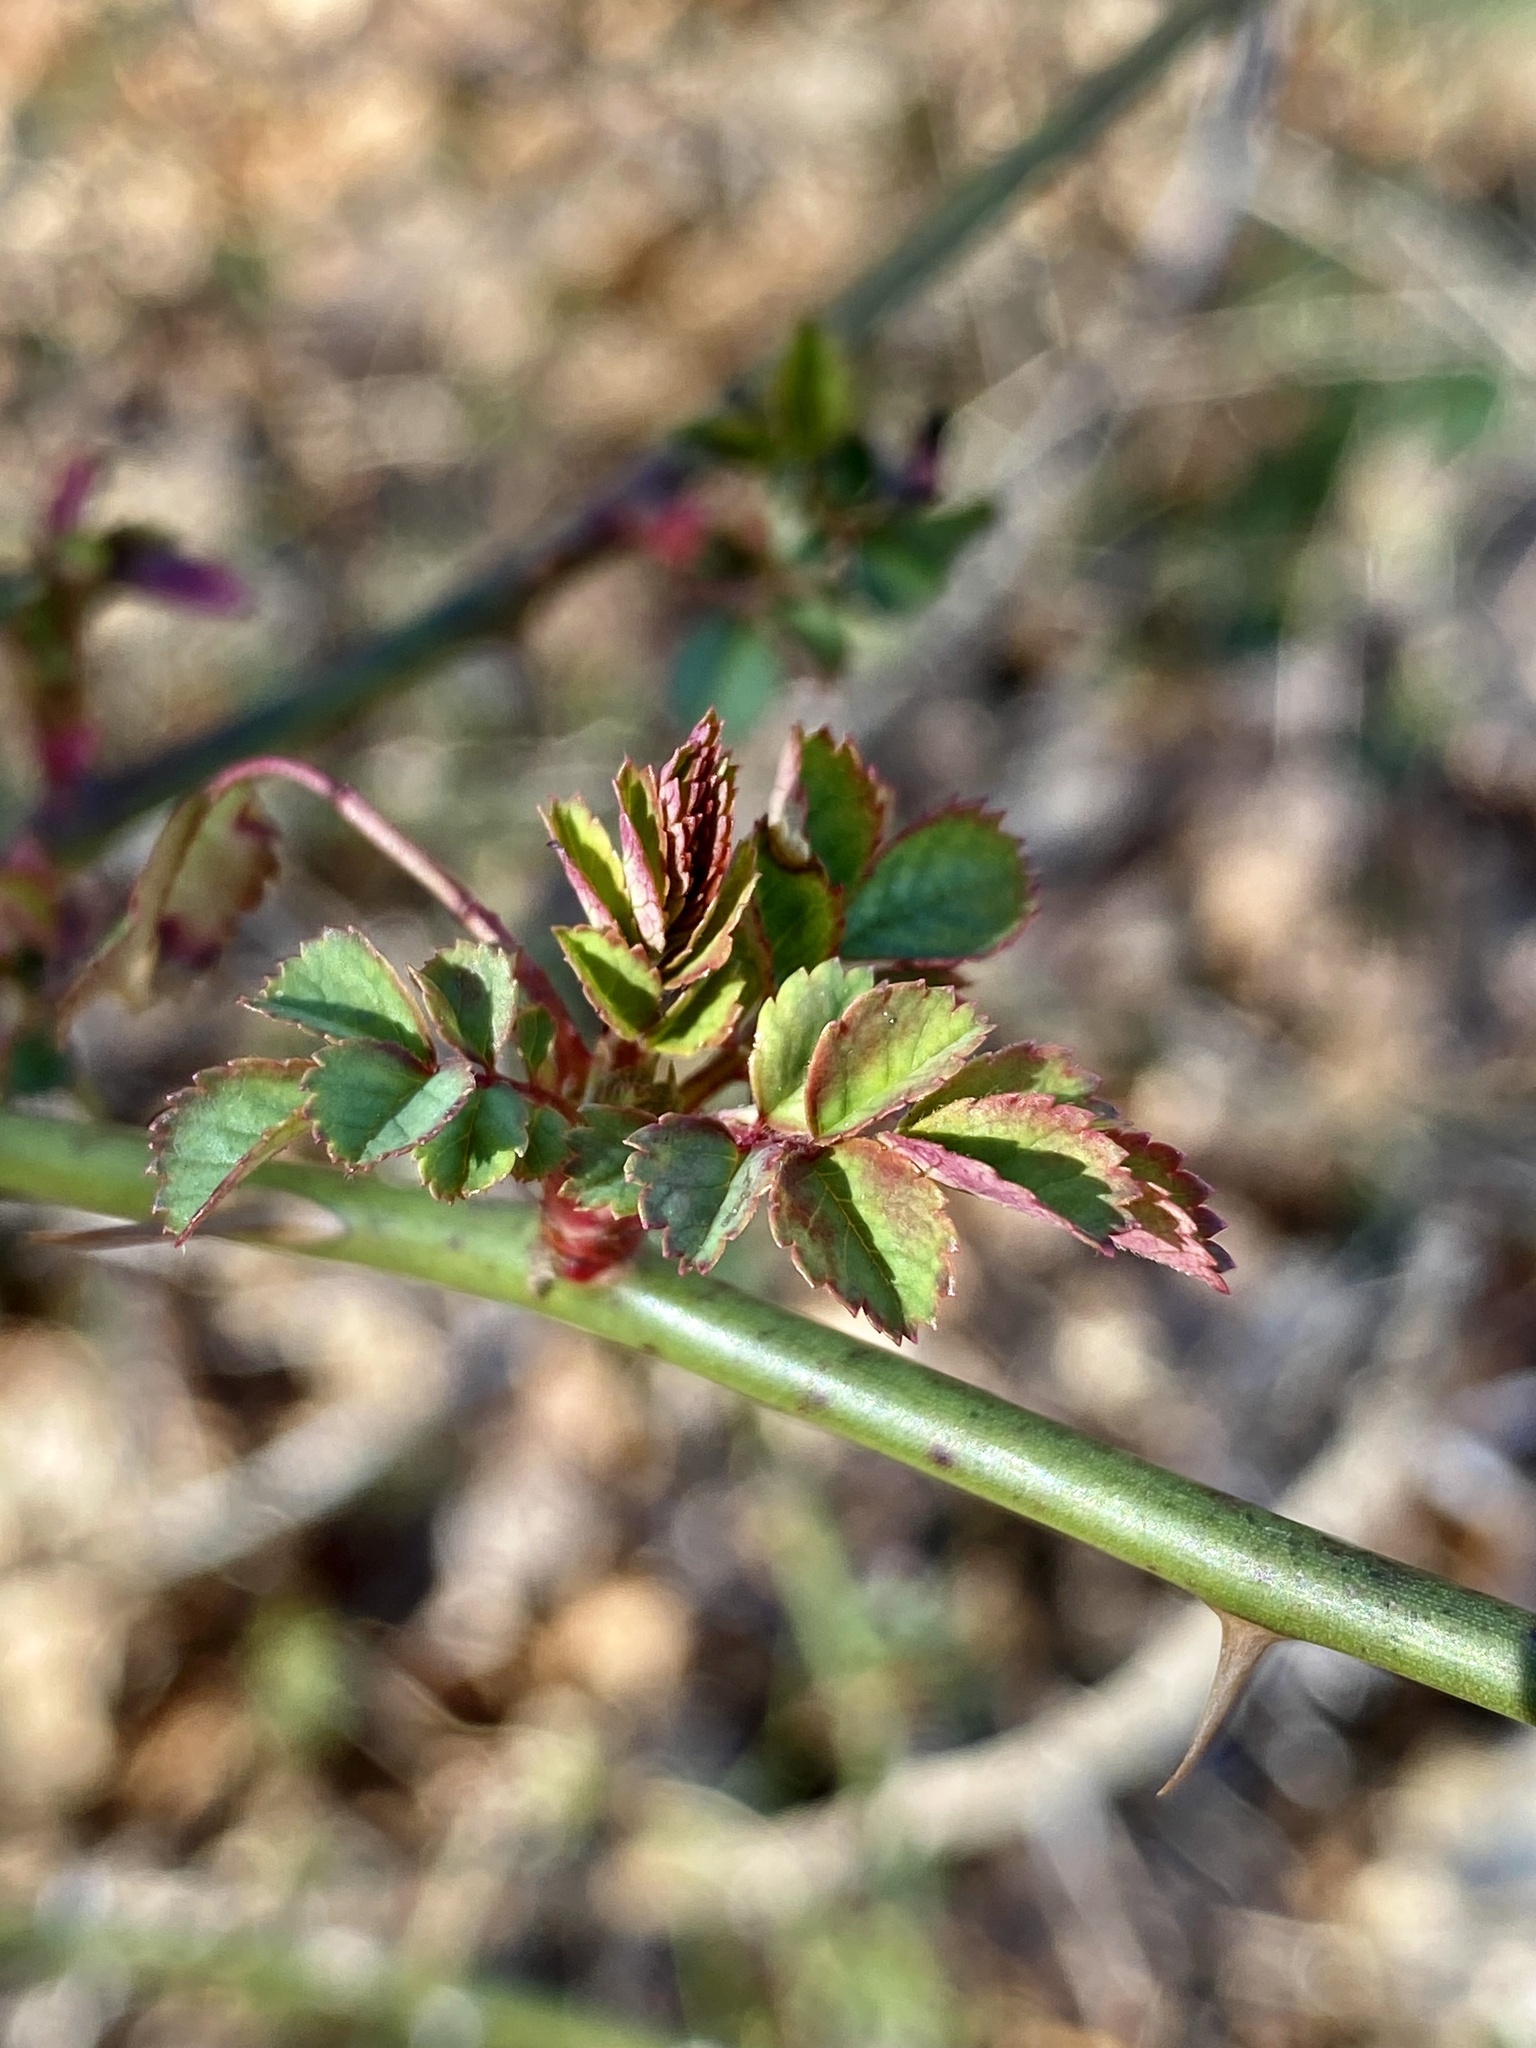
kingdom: Plantae
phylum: Tracheophyta
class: Magnoliopsida
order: Rosales
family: Rosaceae
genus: Rosa
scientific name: Rosa multiflora
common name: Multiflora rose
